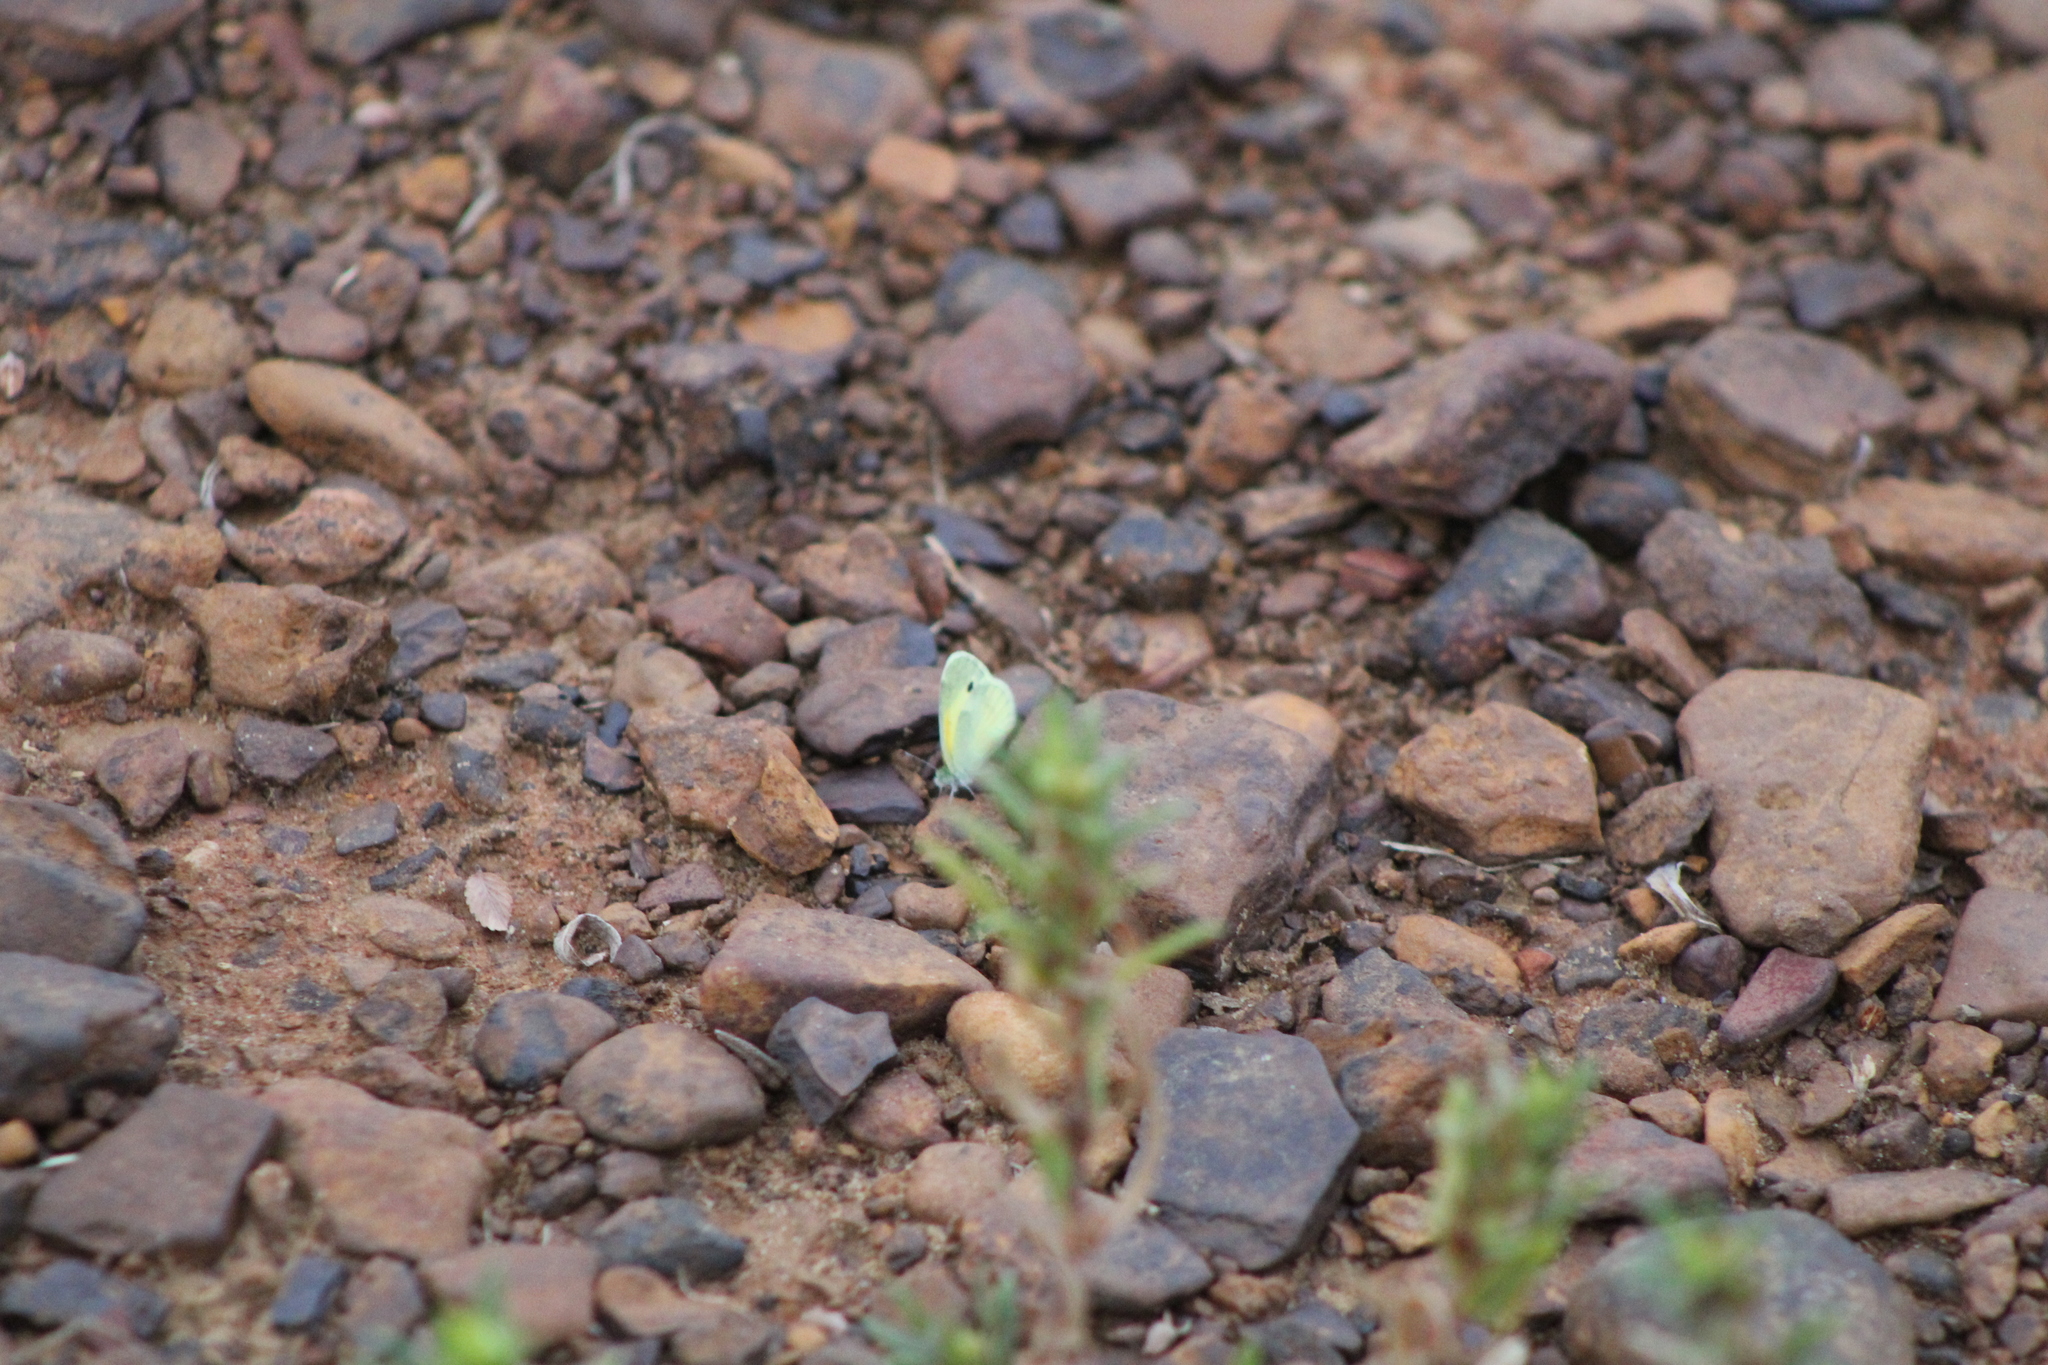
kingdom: Animalia
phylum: Arthropoda
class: Insecta
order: Lepidoptera
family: Pieridae
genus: Nathalis
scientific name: Nathalis iole
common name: Dainty sulphur
